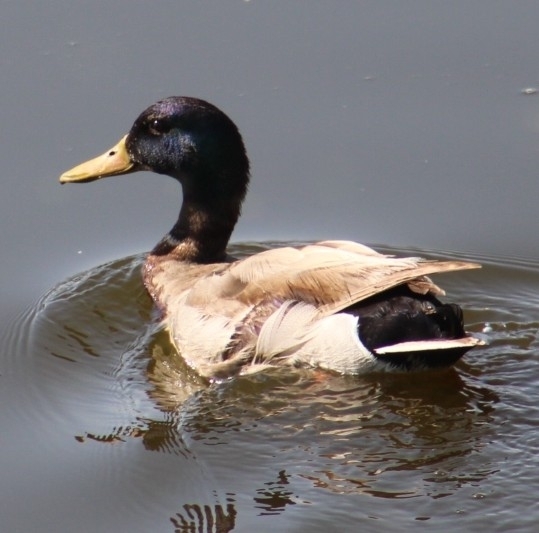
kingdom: Animalia
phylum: Chordata
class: Aves
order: Anseriformes
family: Anatidae
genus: Anas
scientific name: Anas platyrhynchos
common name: Mallard
